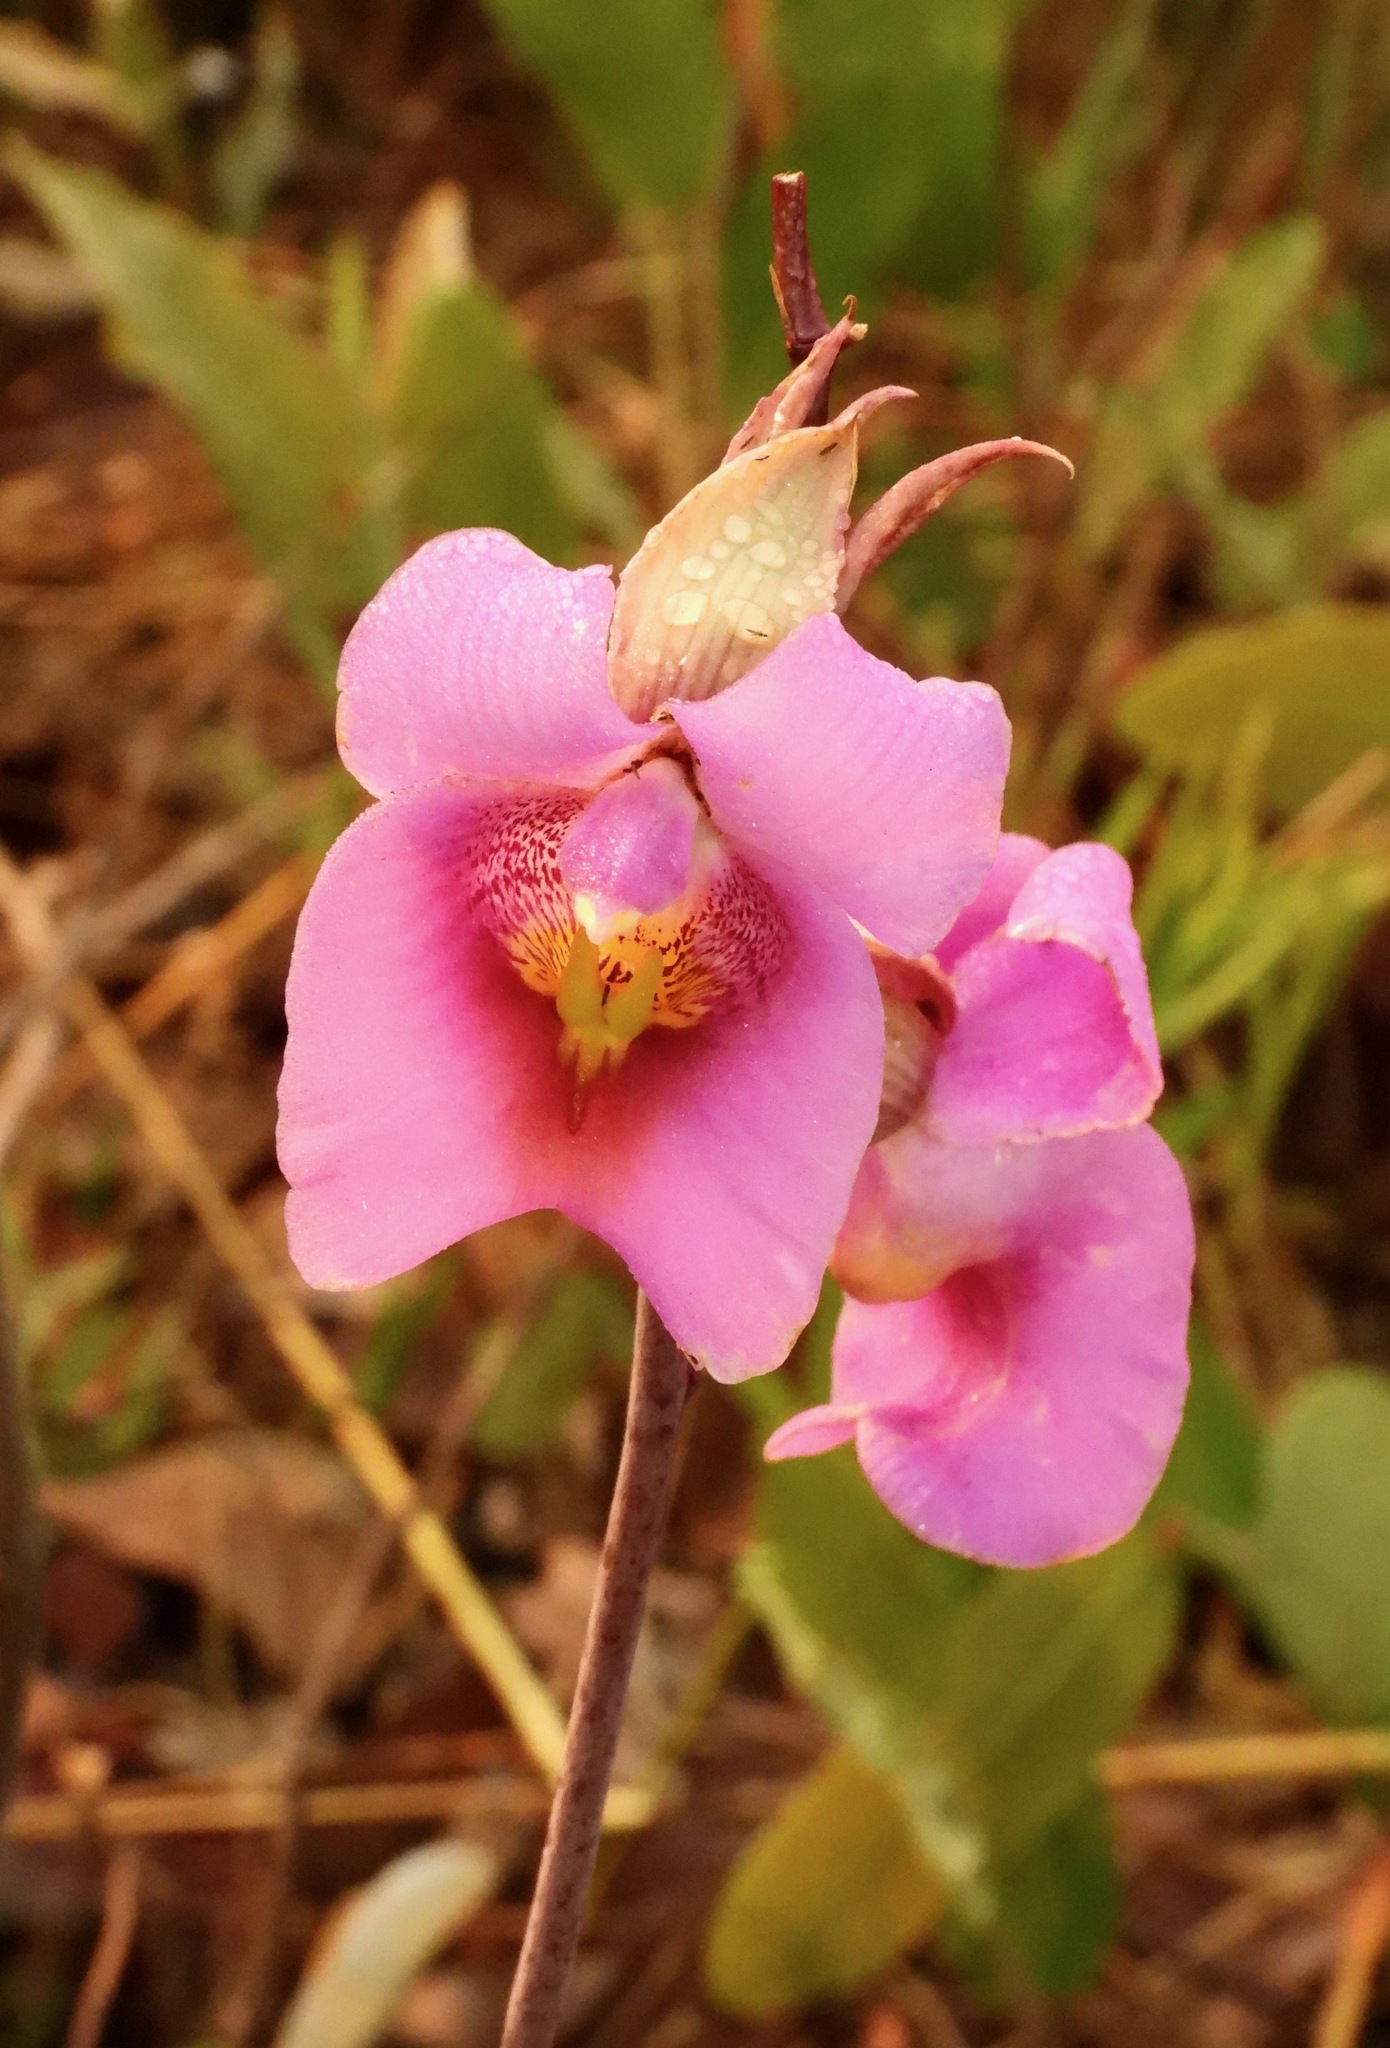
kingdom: Plantae
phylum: Tracheophyta
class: Liliopsida
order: Asparagales
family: Orchidaceae
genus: Eulophia
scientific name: Eulophia cucullata
